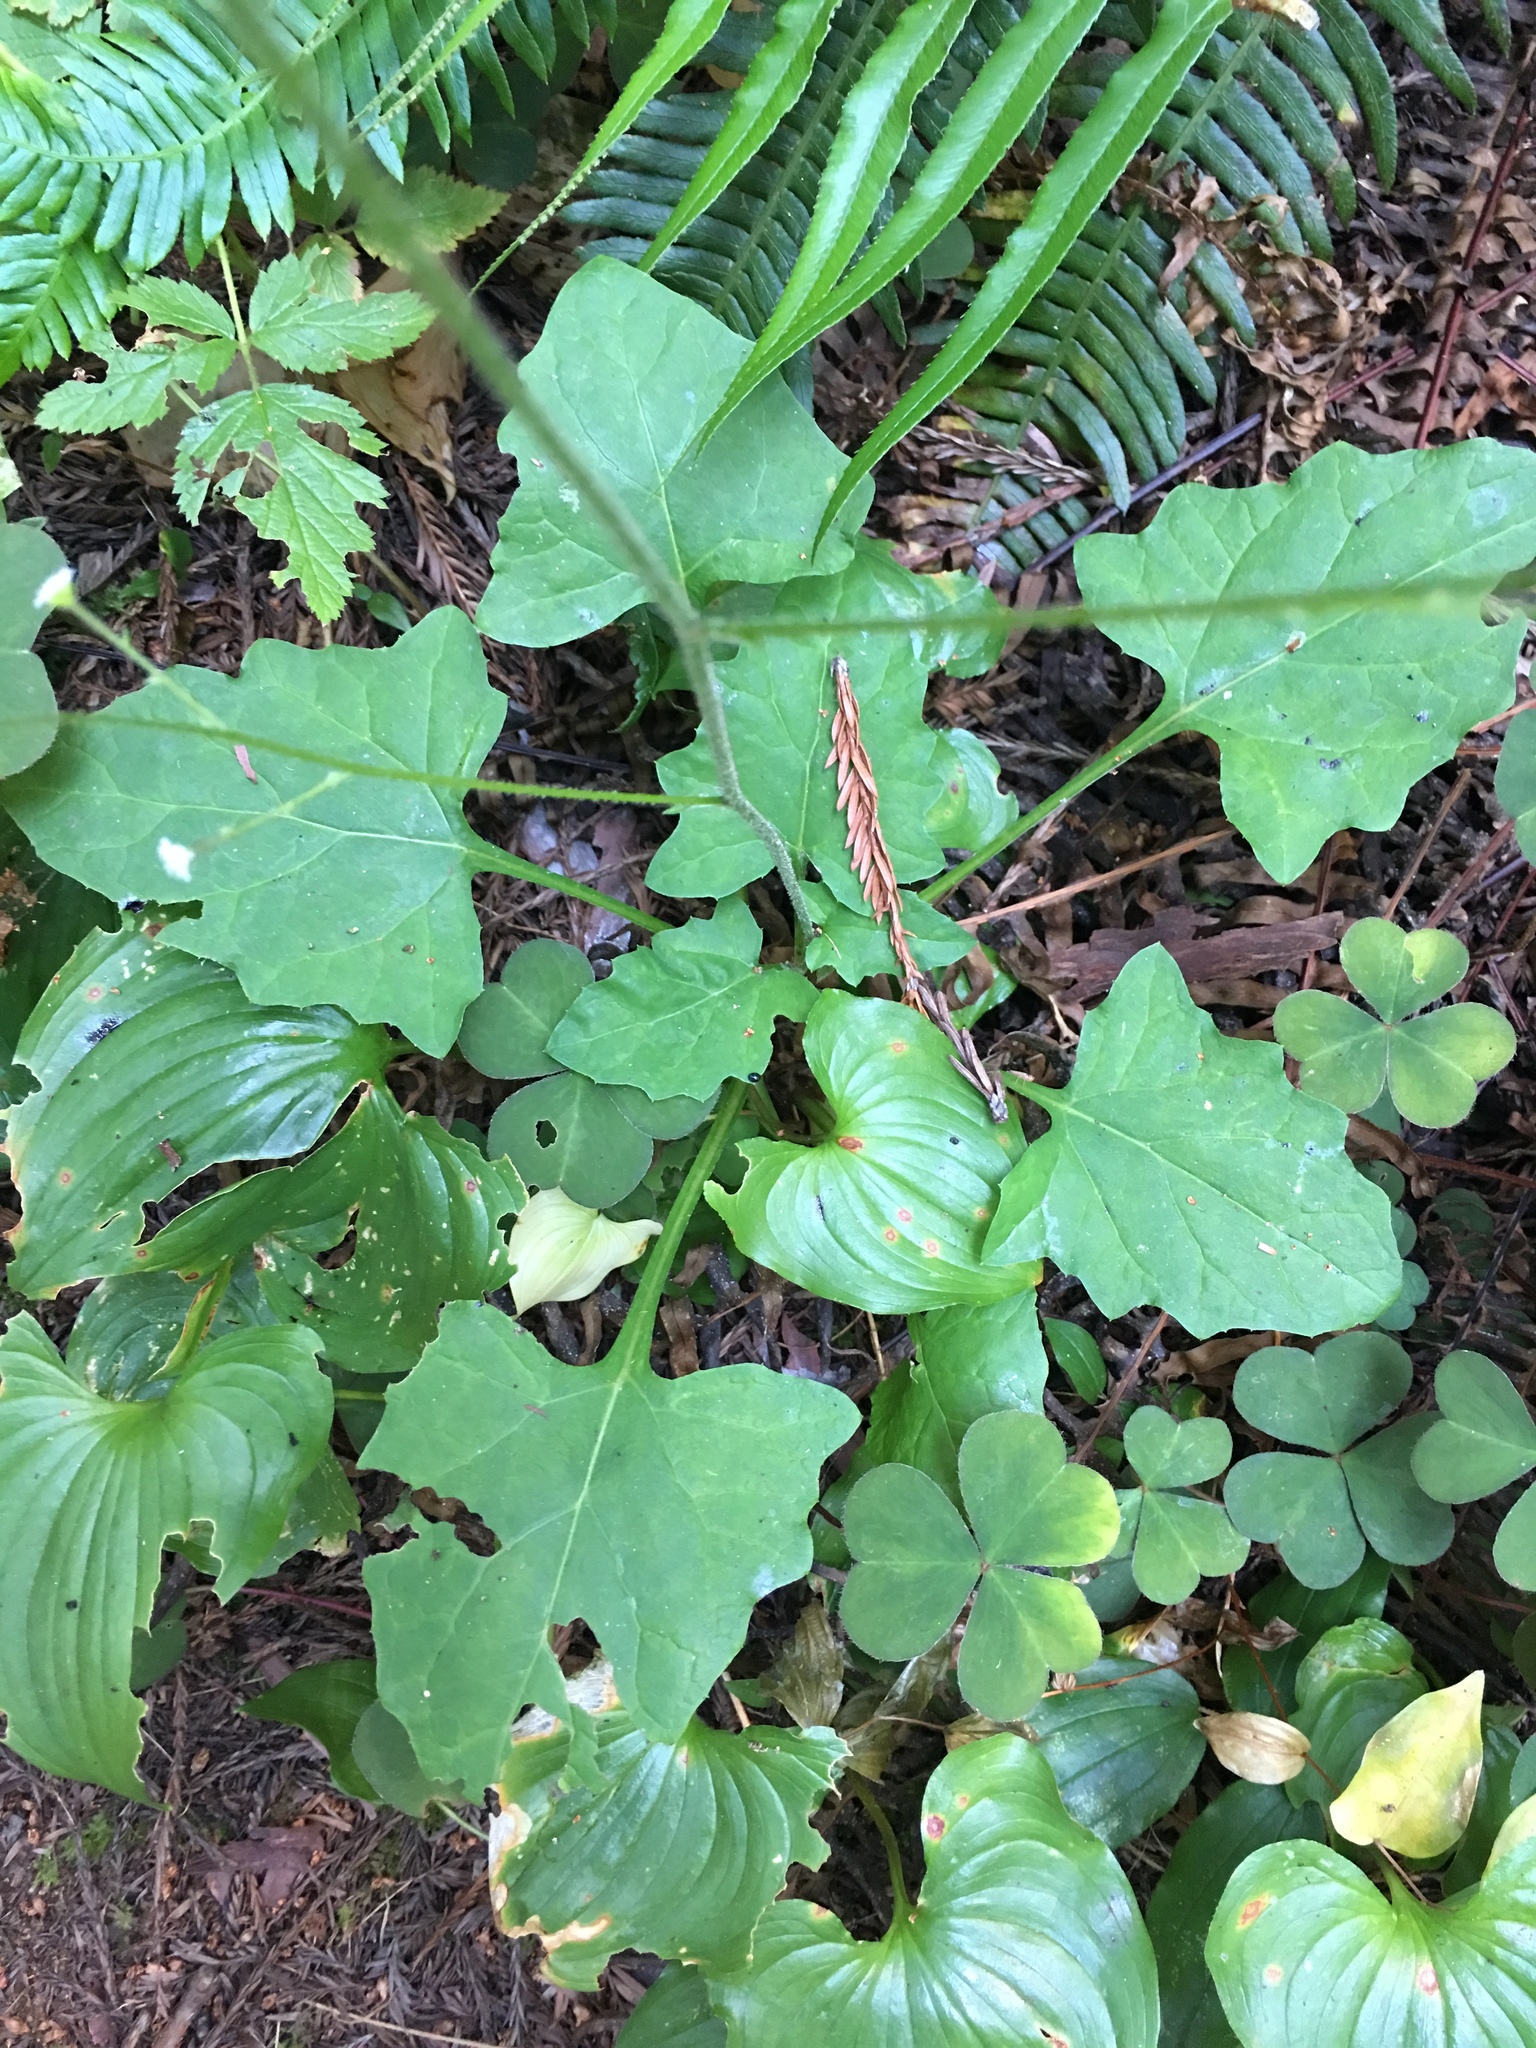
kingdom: Plantae
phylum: Tracheophyta
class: Magnoliopsida
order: Asterales
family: Asteraceae
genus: Adenocaulon
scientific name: Adenocaulon bicolor
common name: Trailplant
